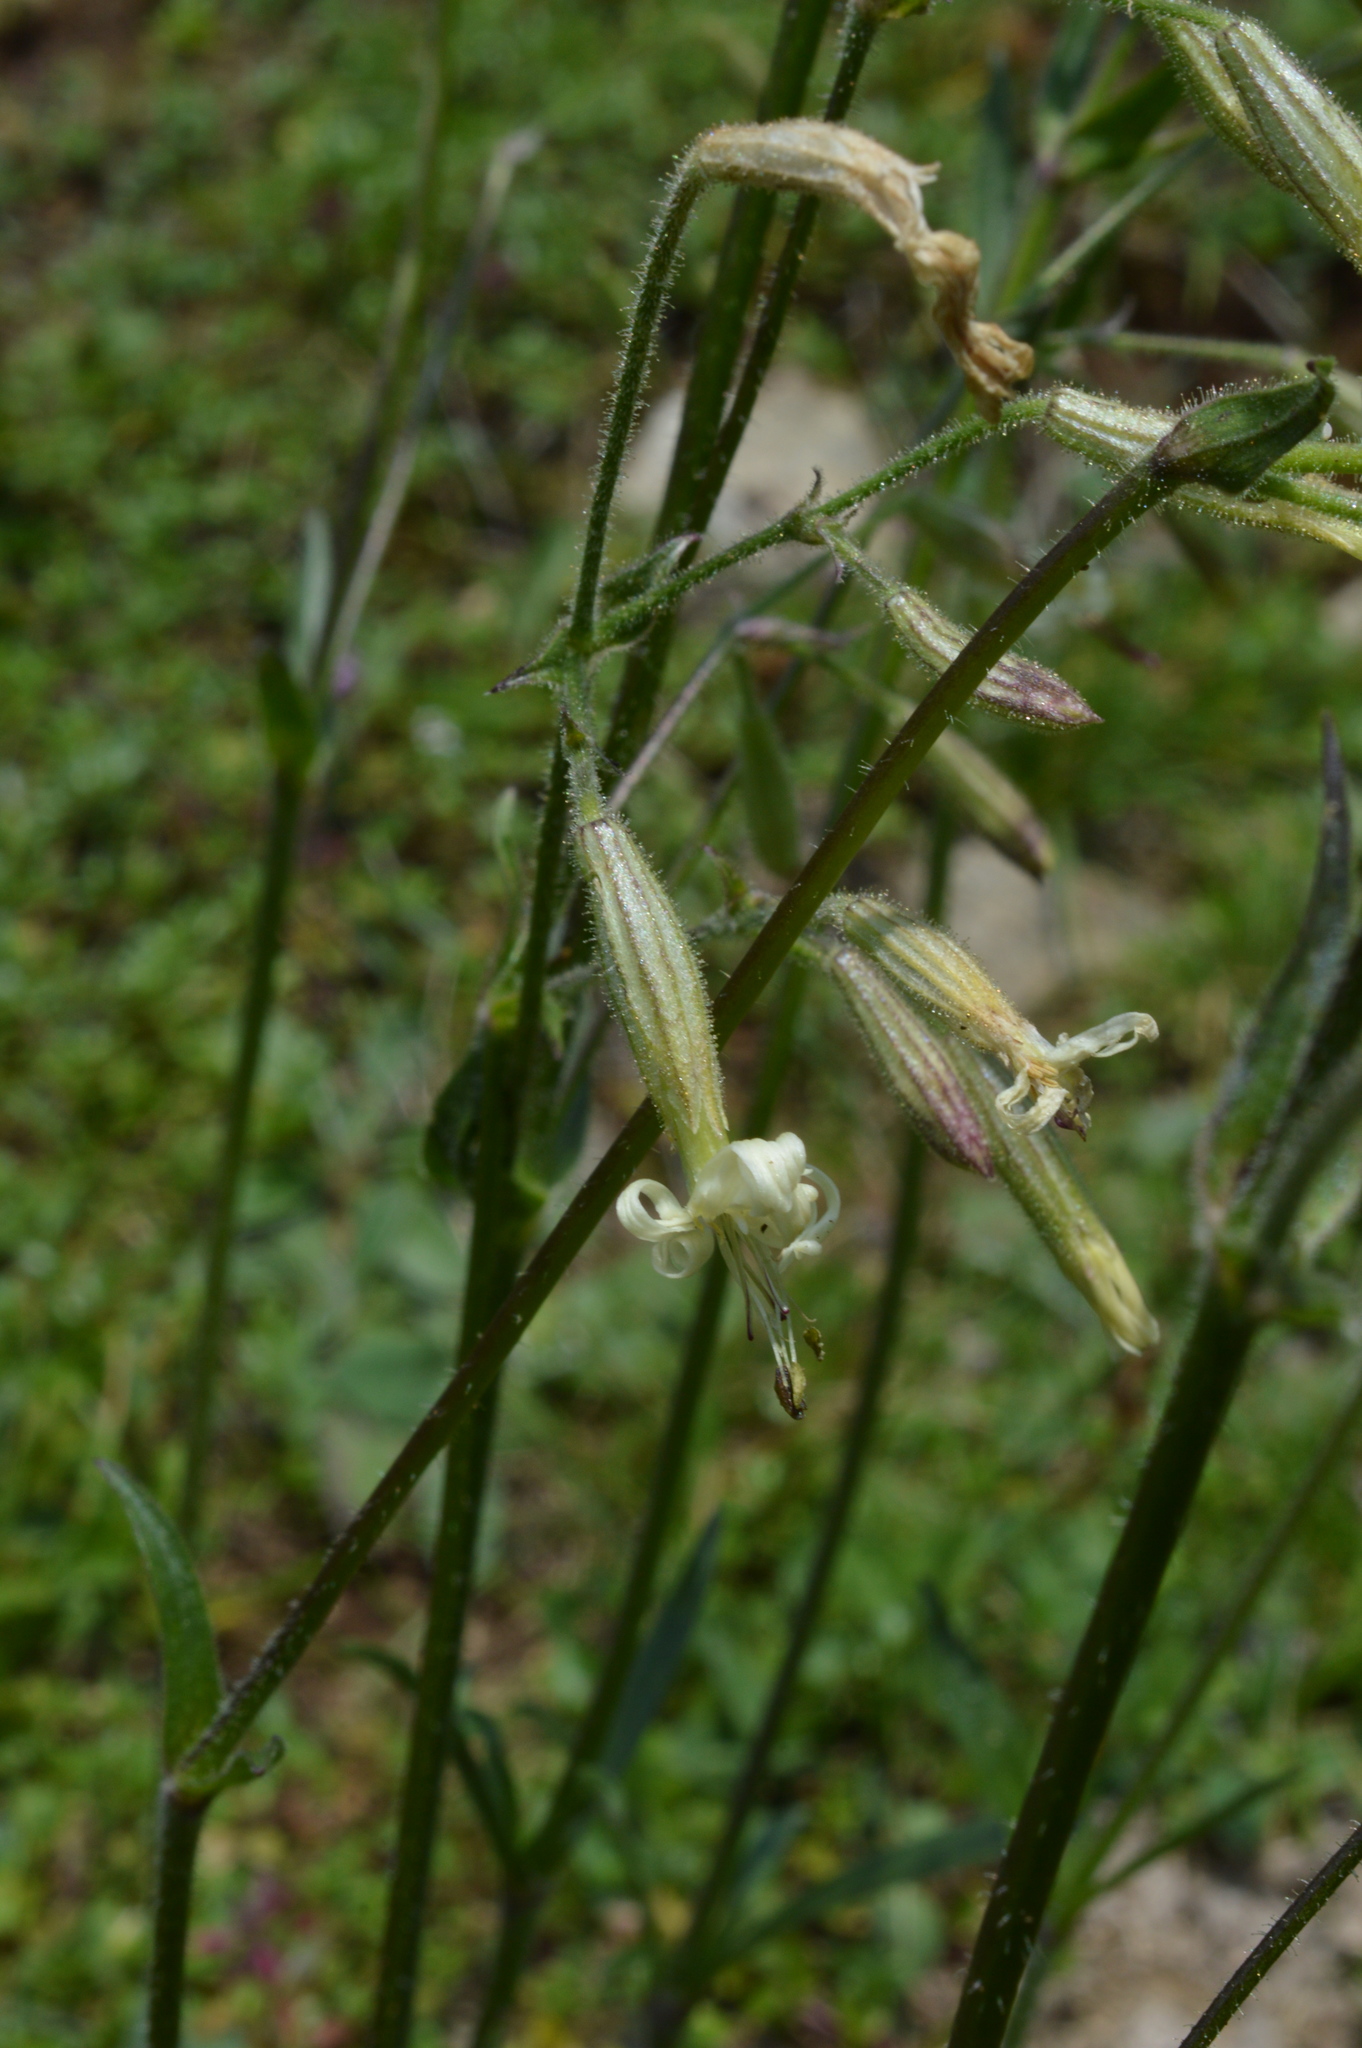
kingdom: Plantae
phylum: Tracheophyta
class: Magnoliopsida
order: Caryophyllales
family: Caryophyllaceae
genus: Silene
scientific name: Silene nutans
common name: Nottingham catchfly
